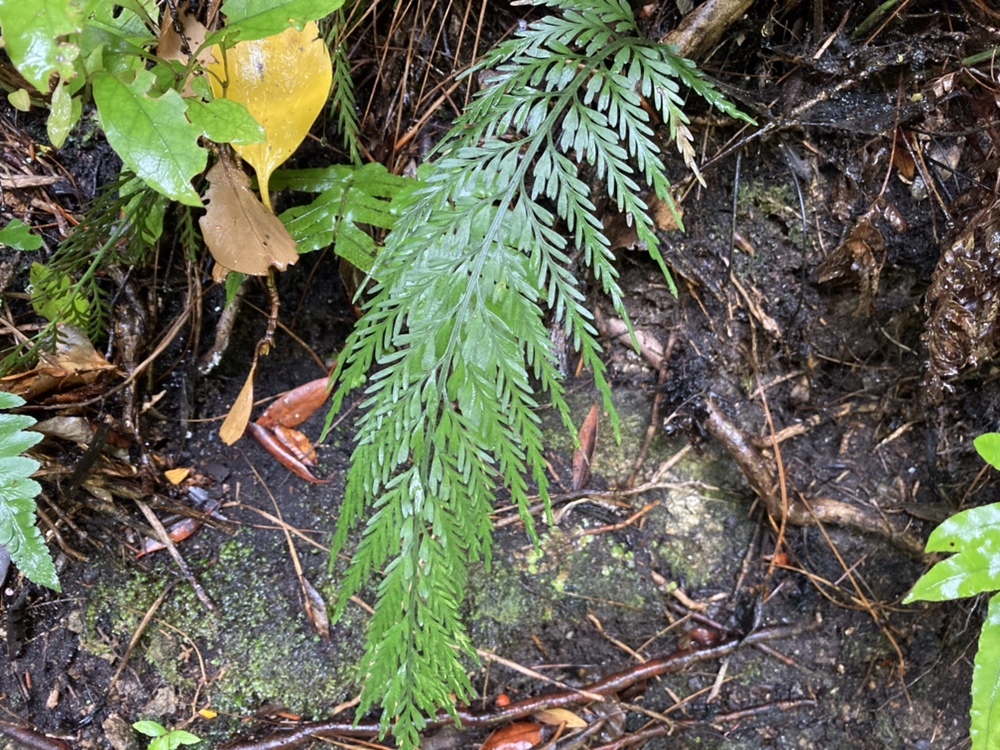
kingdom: Plantae
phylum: Tracheophyta
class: Polypodiopsida
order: Polypodiales
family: Aspleniaceae
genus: Asplenium
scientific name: Asplenium appendiculatum
